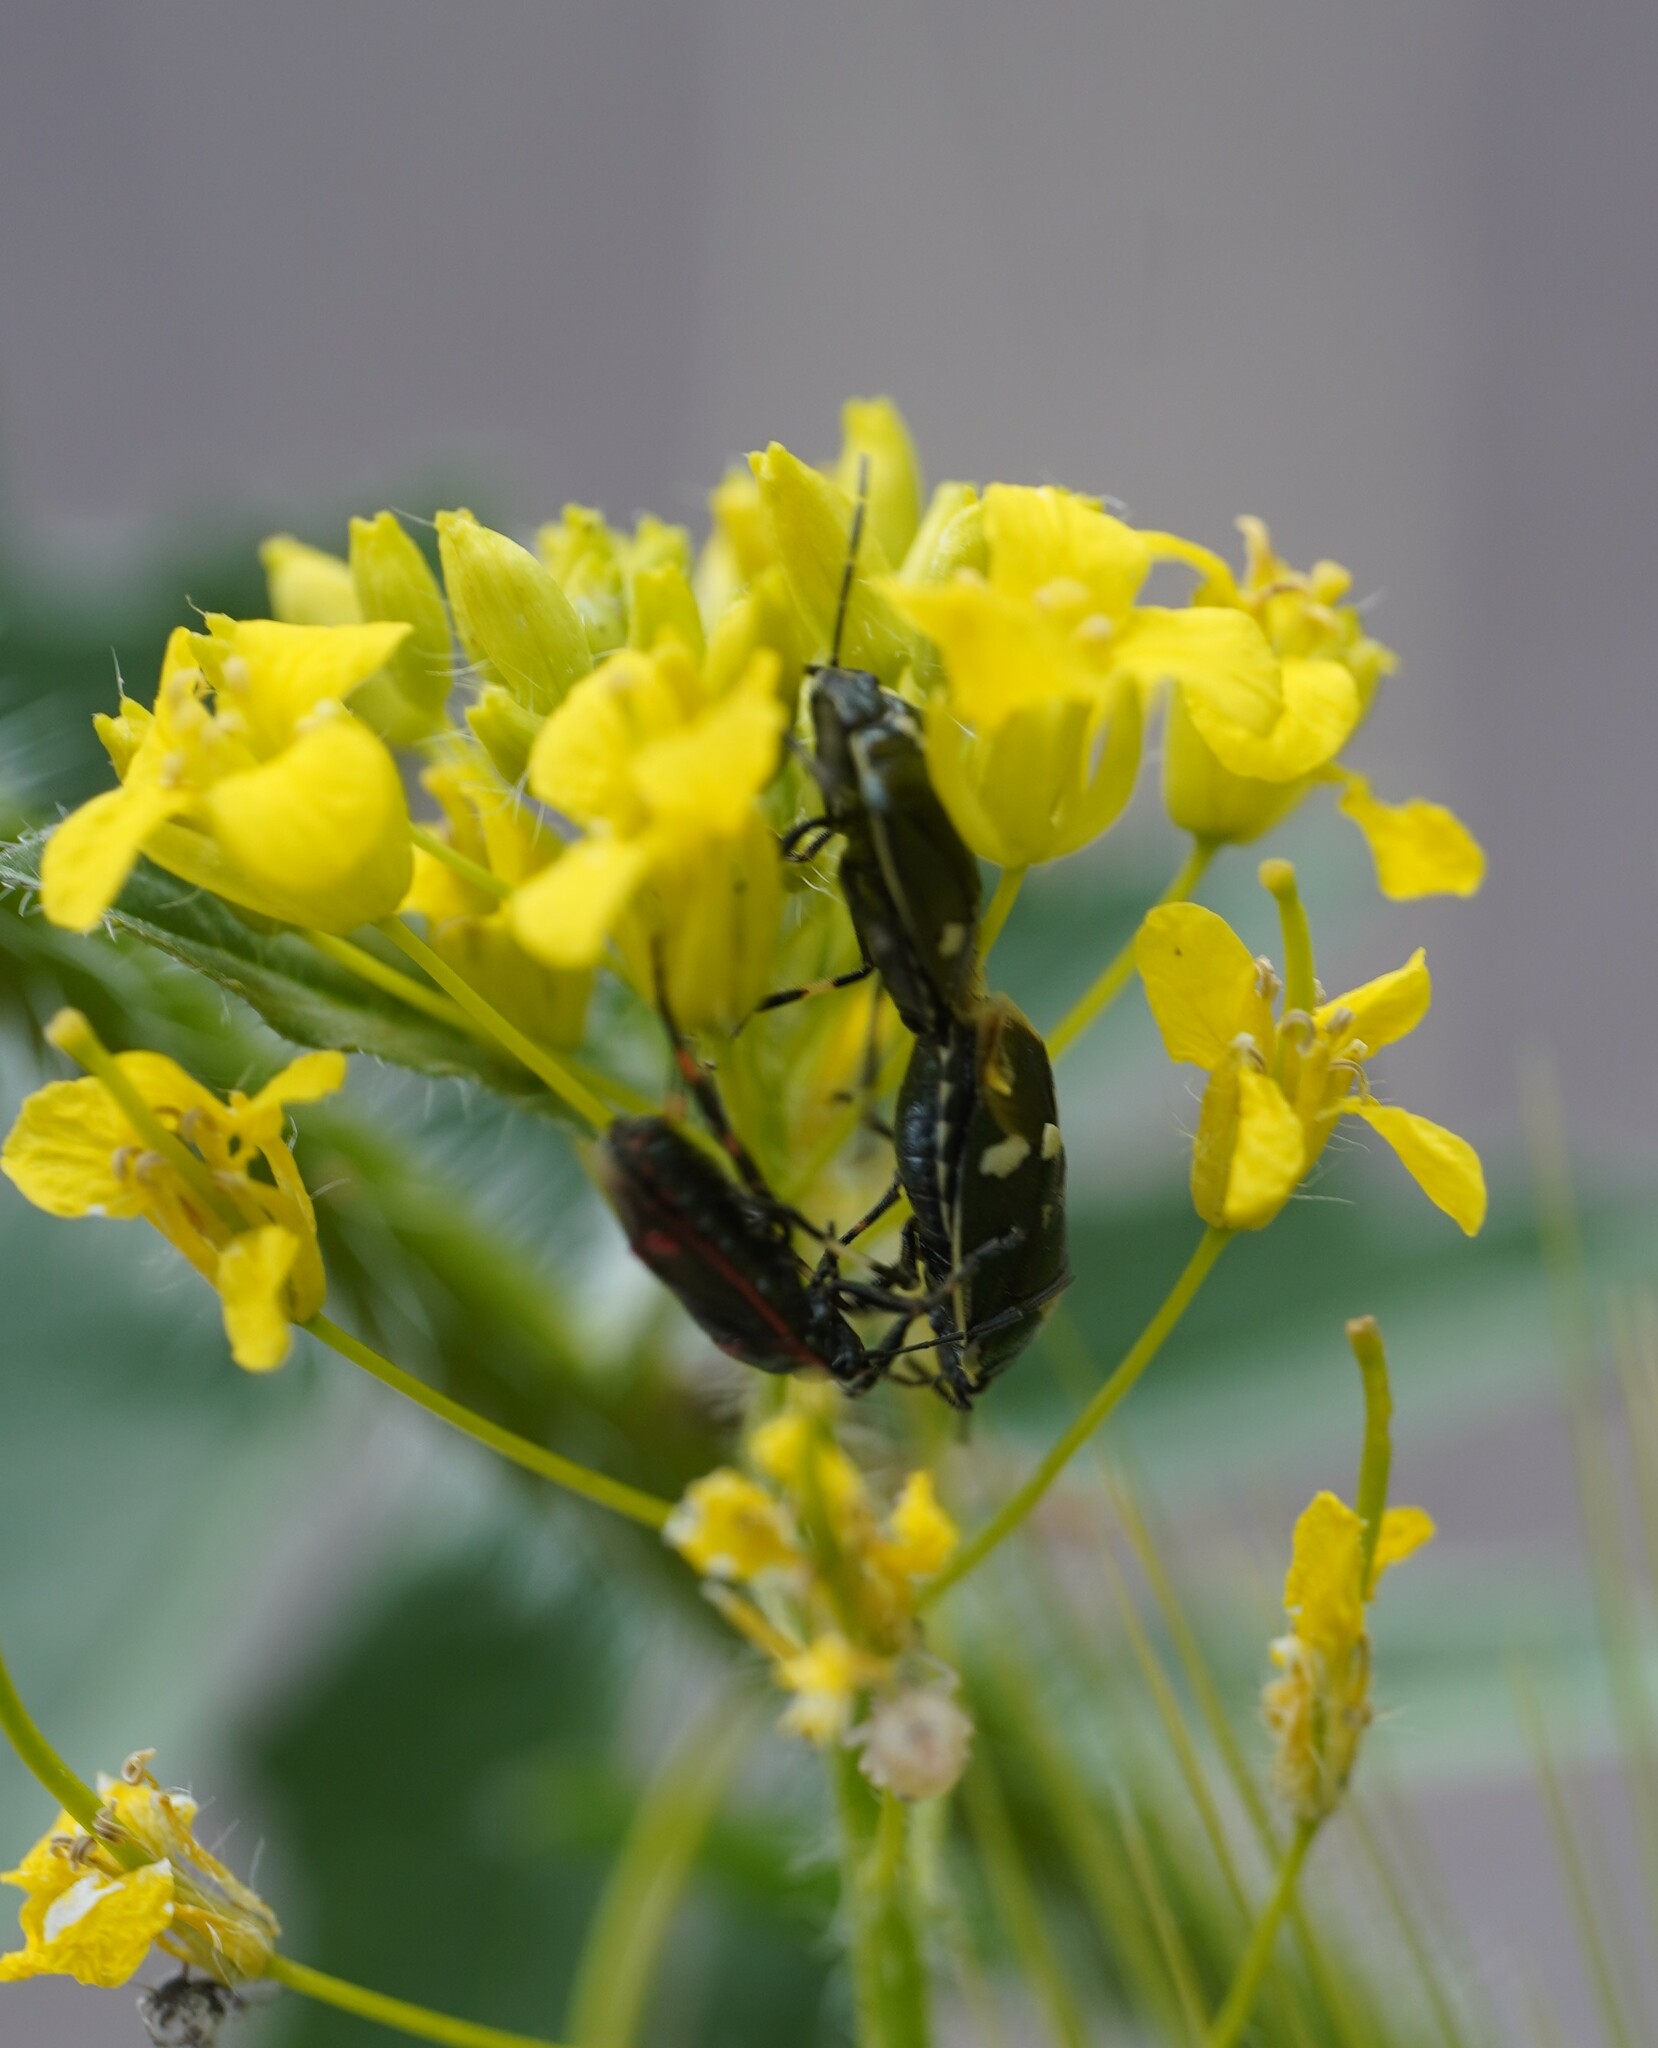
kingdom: Animalia
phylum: Arthropoda
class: Insecta
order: Hemiptera
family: Pentatomidae
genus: Eurydema
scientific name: Eurydema oleracea
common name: Cabbage bug
